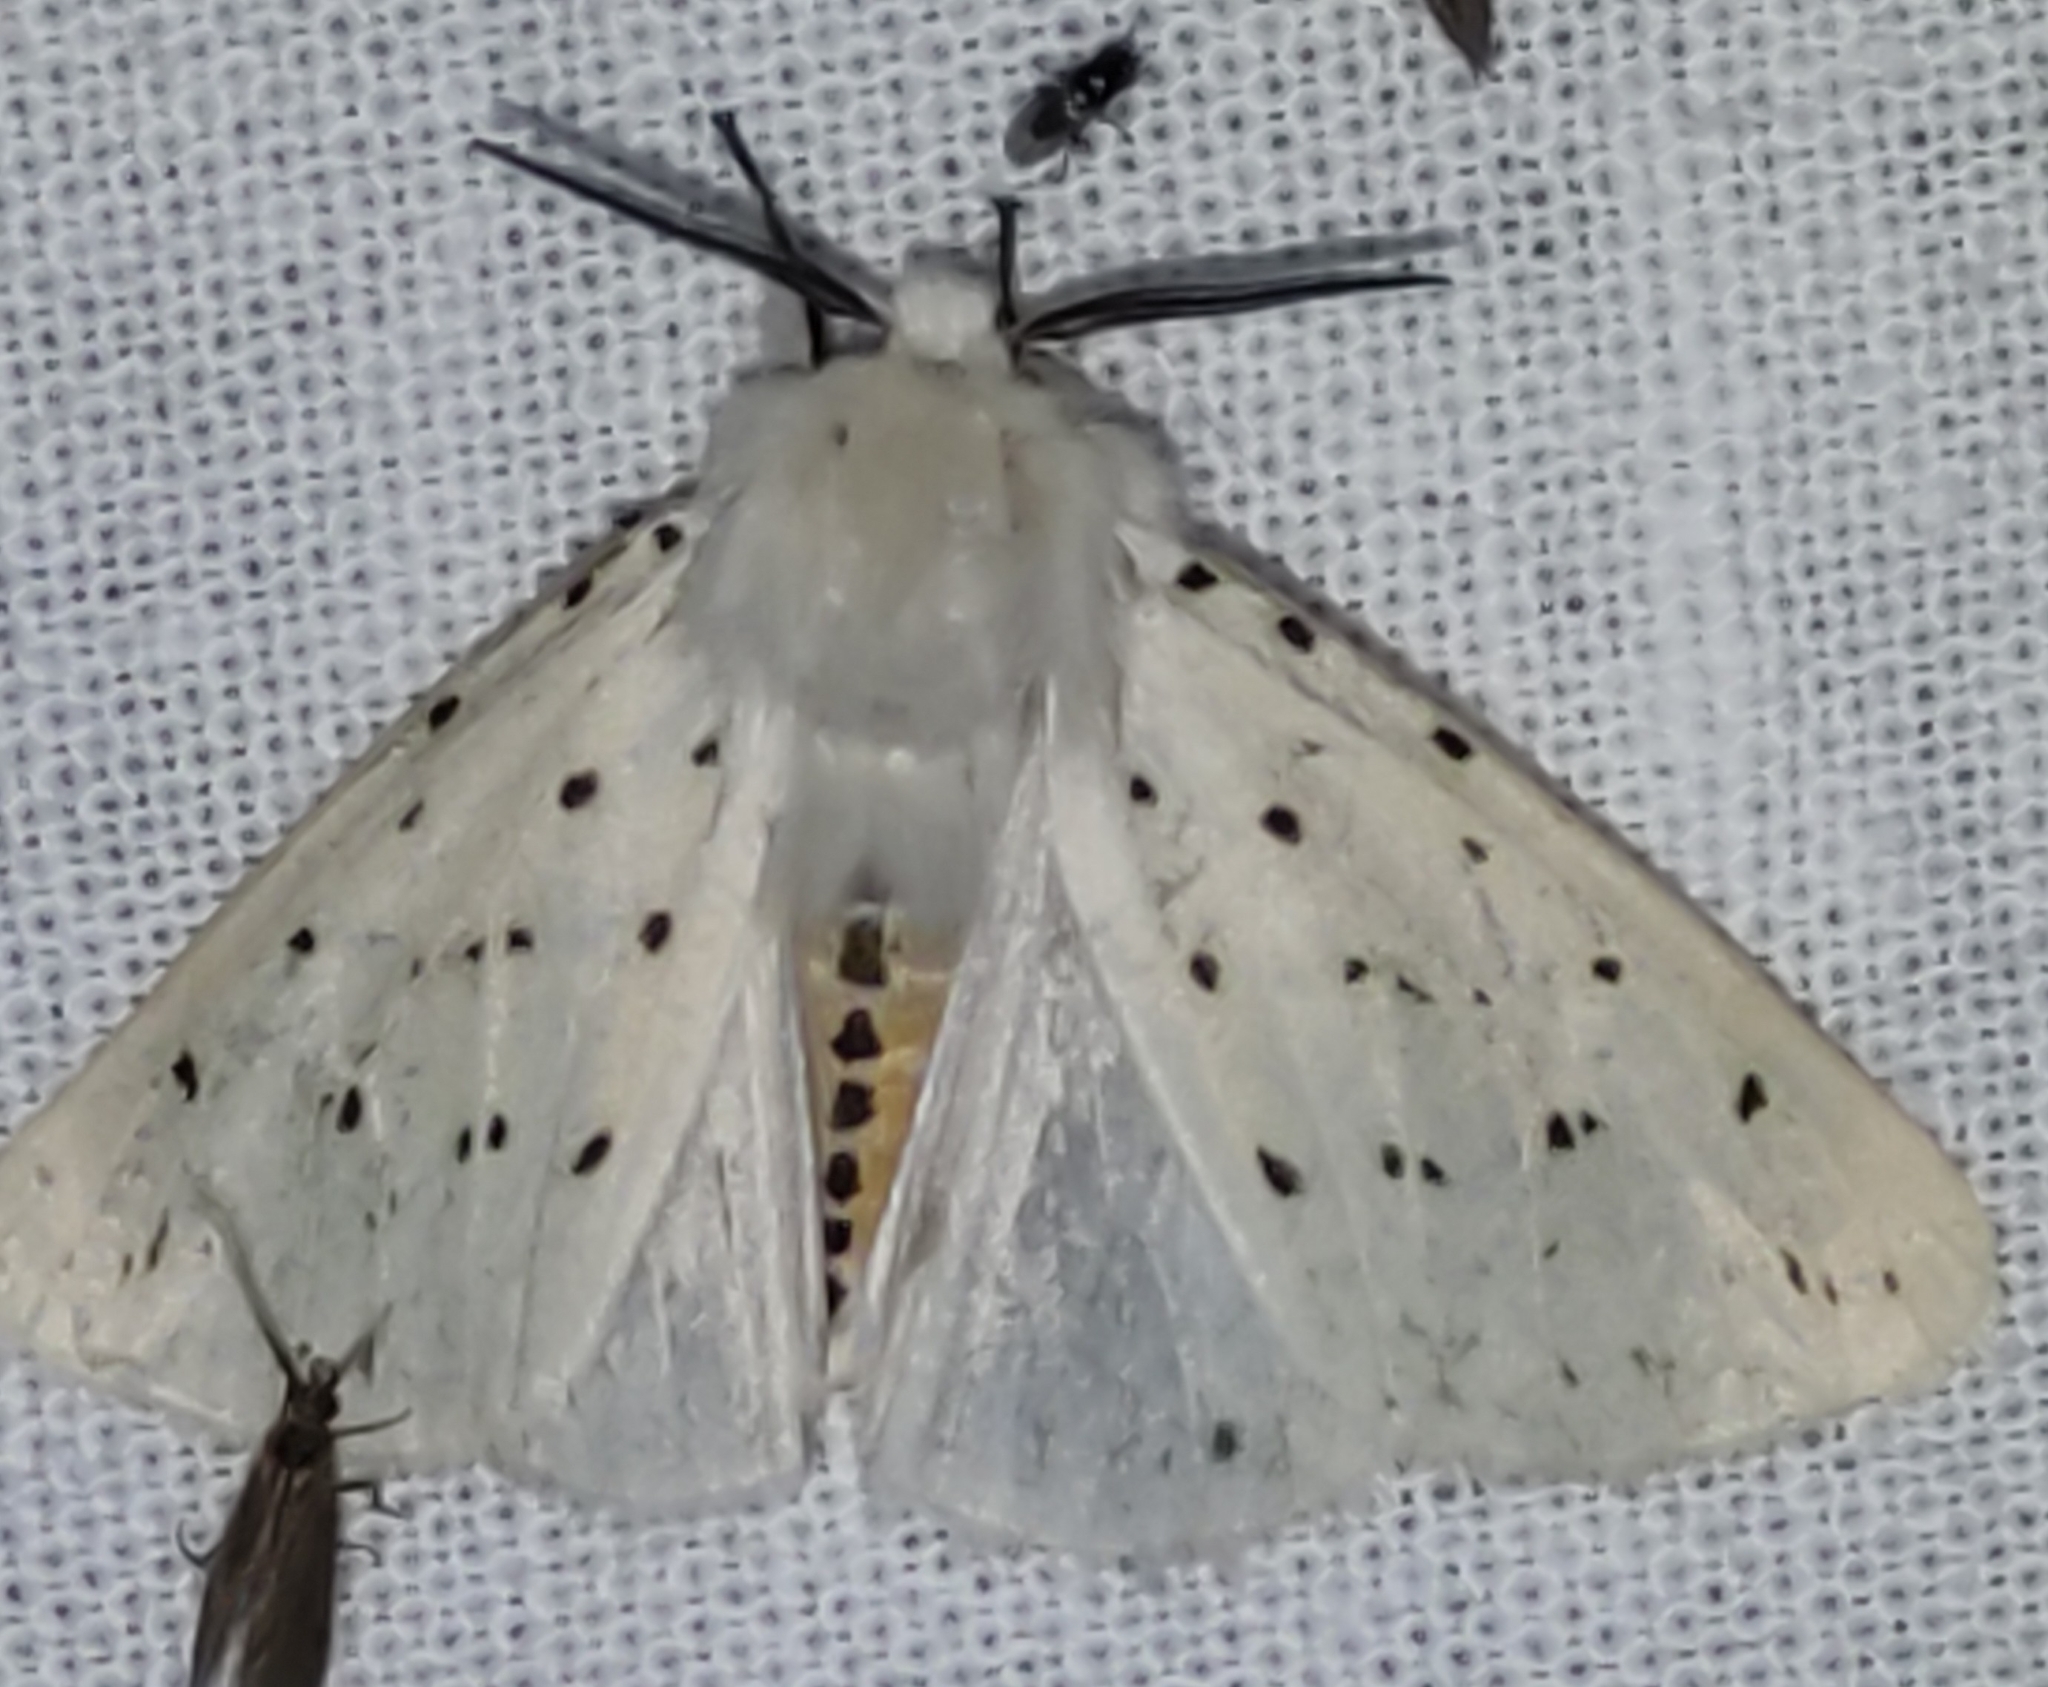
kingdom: Animalia
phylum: Arthropoda
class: Insecta
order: Lepidoptera
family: Erebidae
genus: Spilosoma
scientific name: Spilosoma lubricipeda
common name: White ermine
